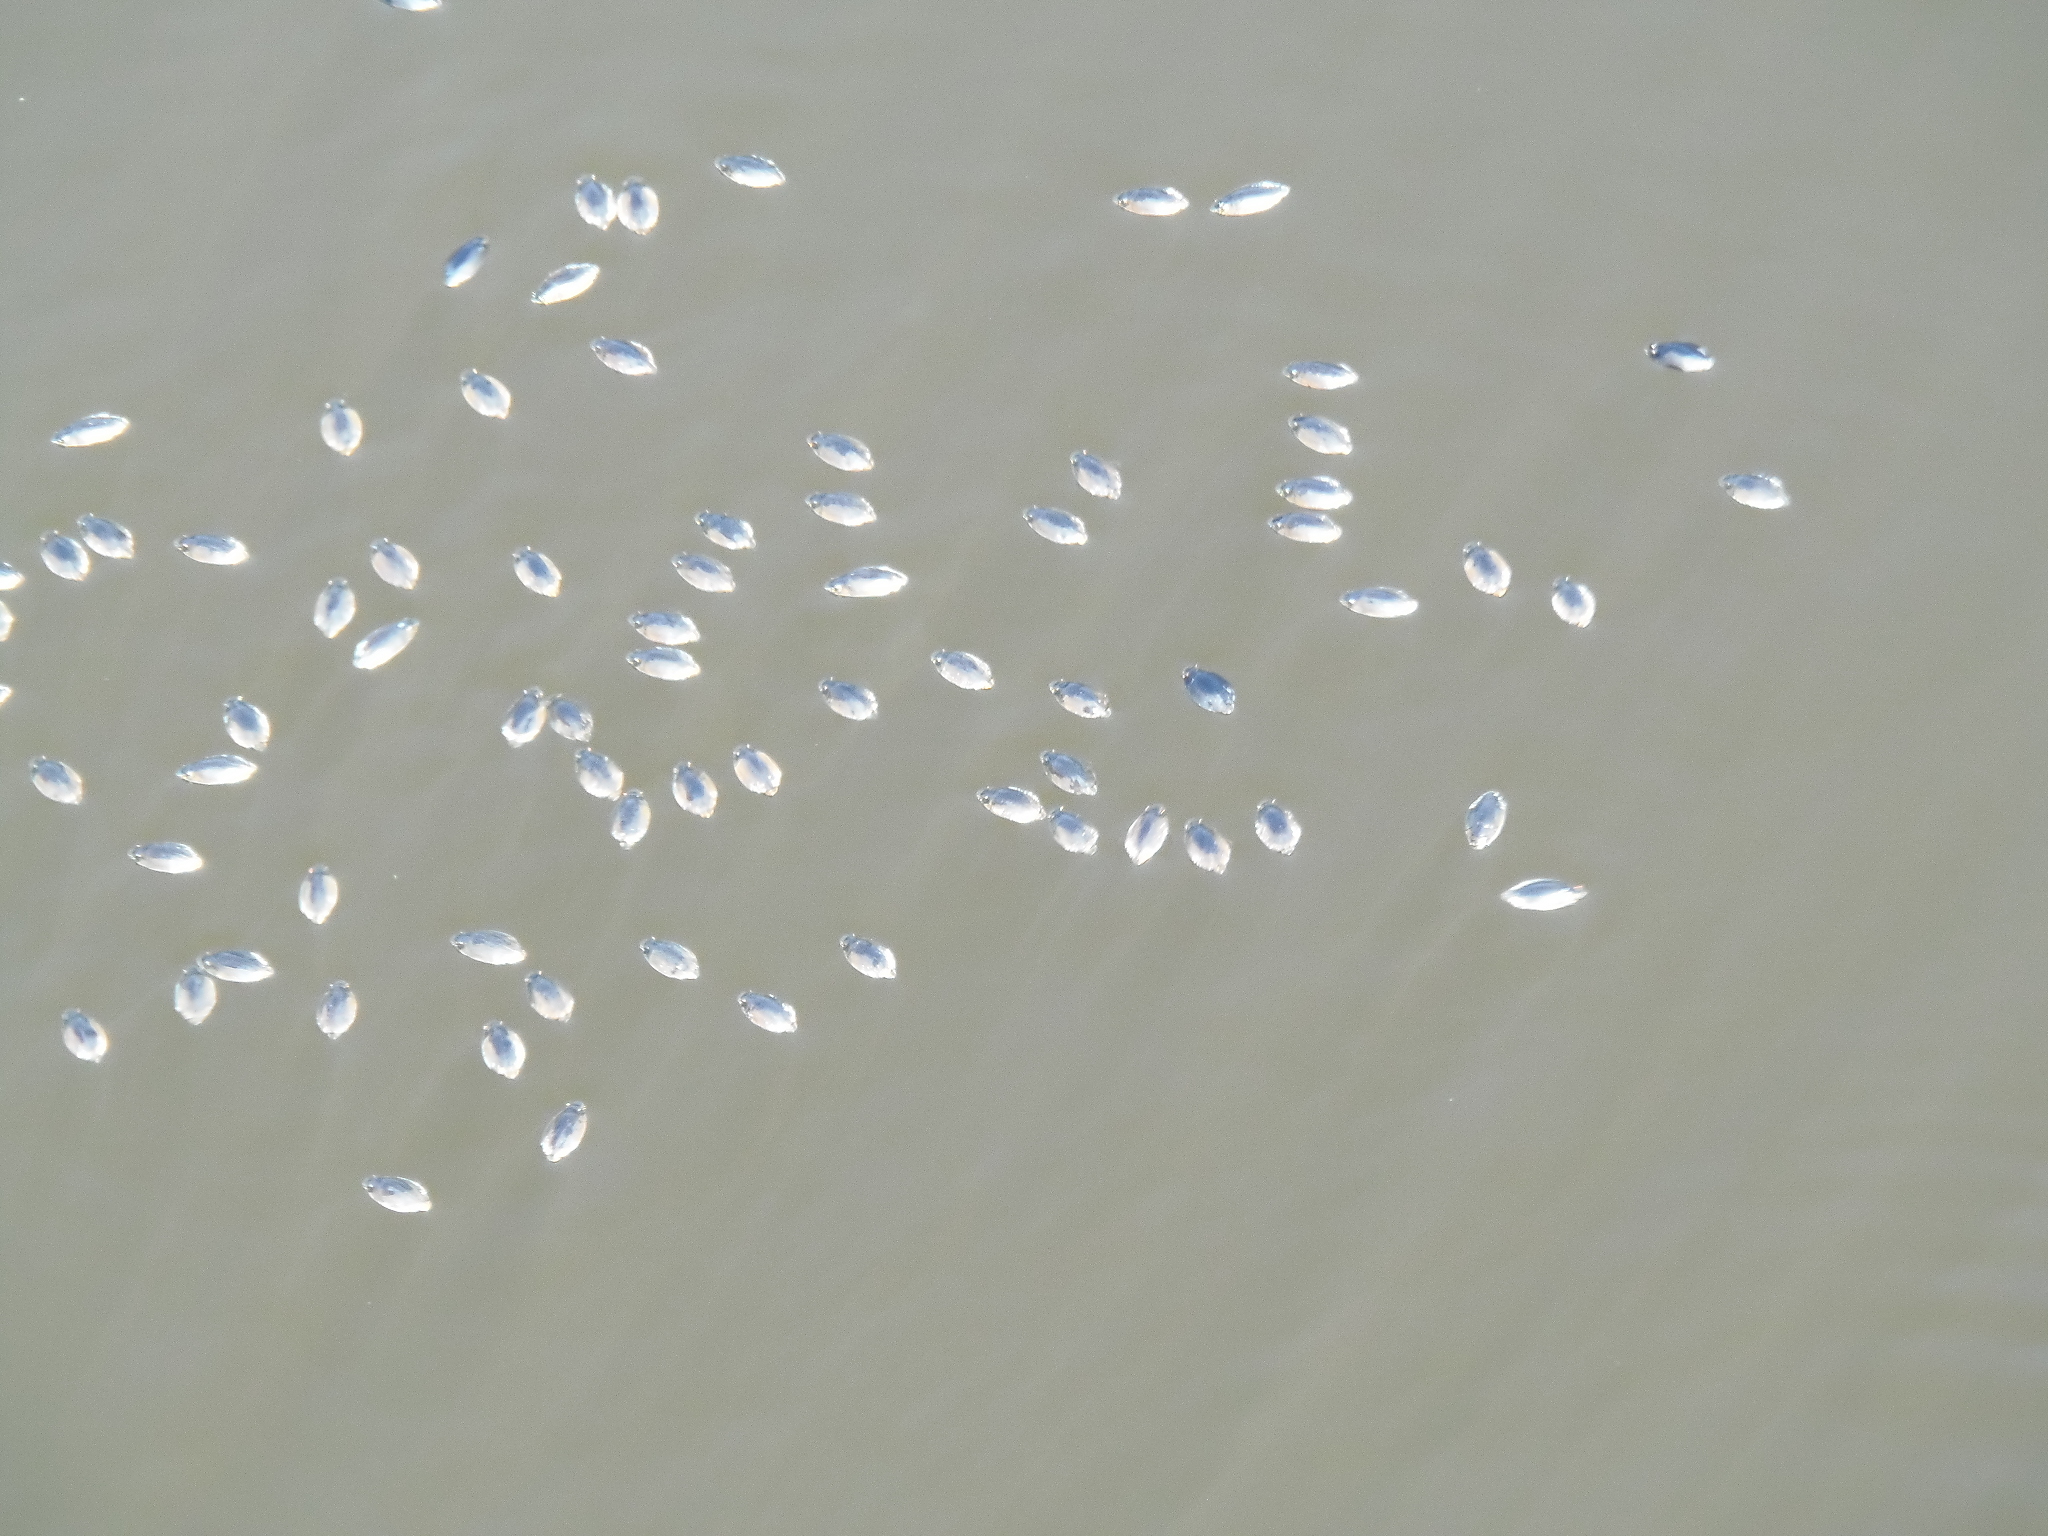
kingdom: Animalia
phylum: Arthropoda
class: Insecta
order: Coleoptera
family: Gyrinidae
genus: Dineutus
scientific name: Dineutus
